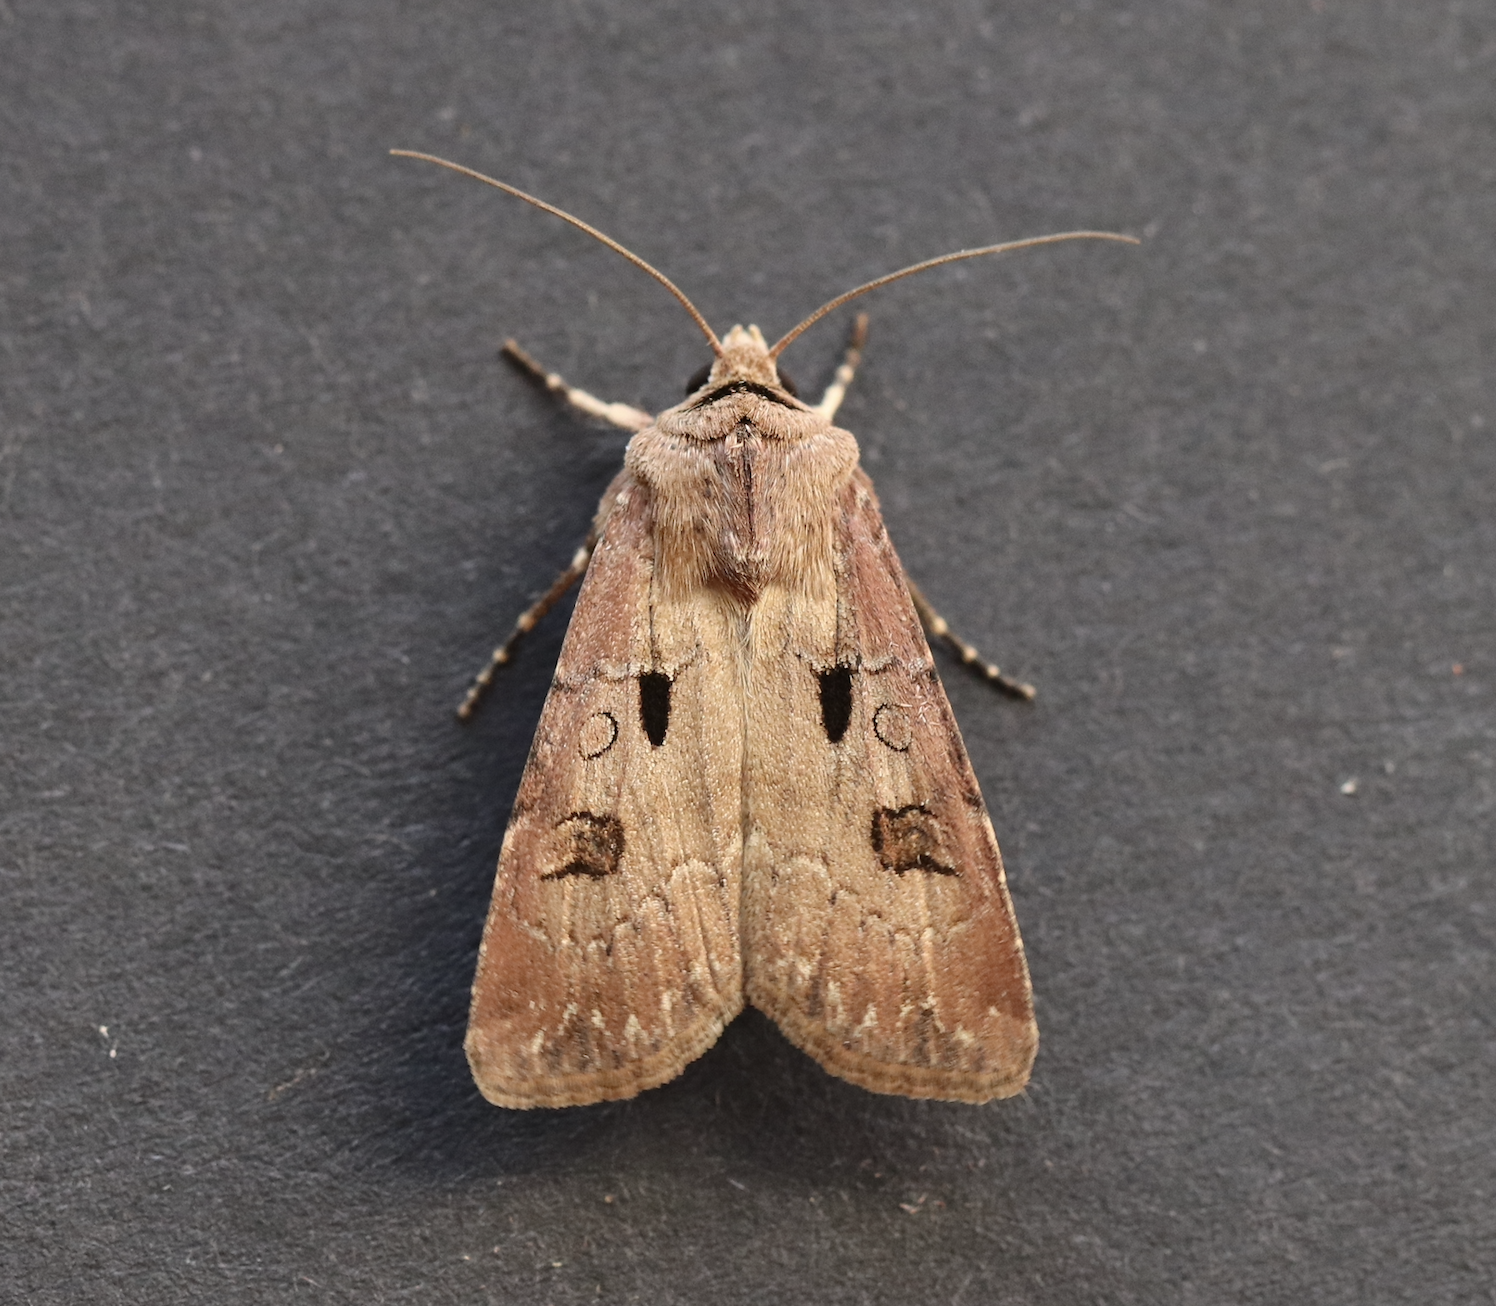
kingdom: Animalia
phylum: Arthropoda
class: Insecta
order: Lepidoptera
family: Noctuidae
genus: Agrotis
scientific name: Agrotis exclamationis
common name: Heart and dart
